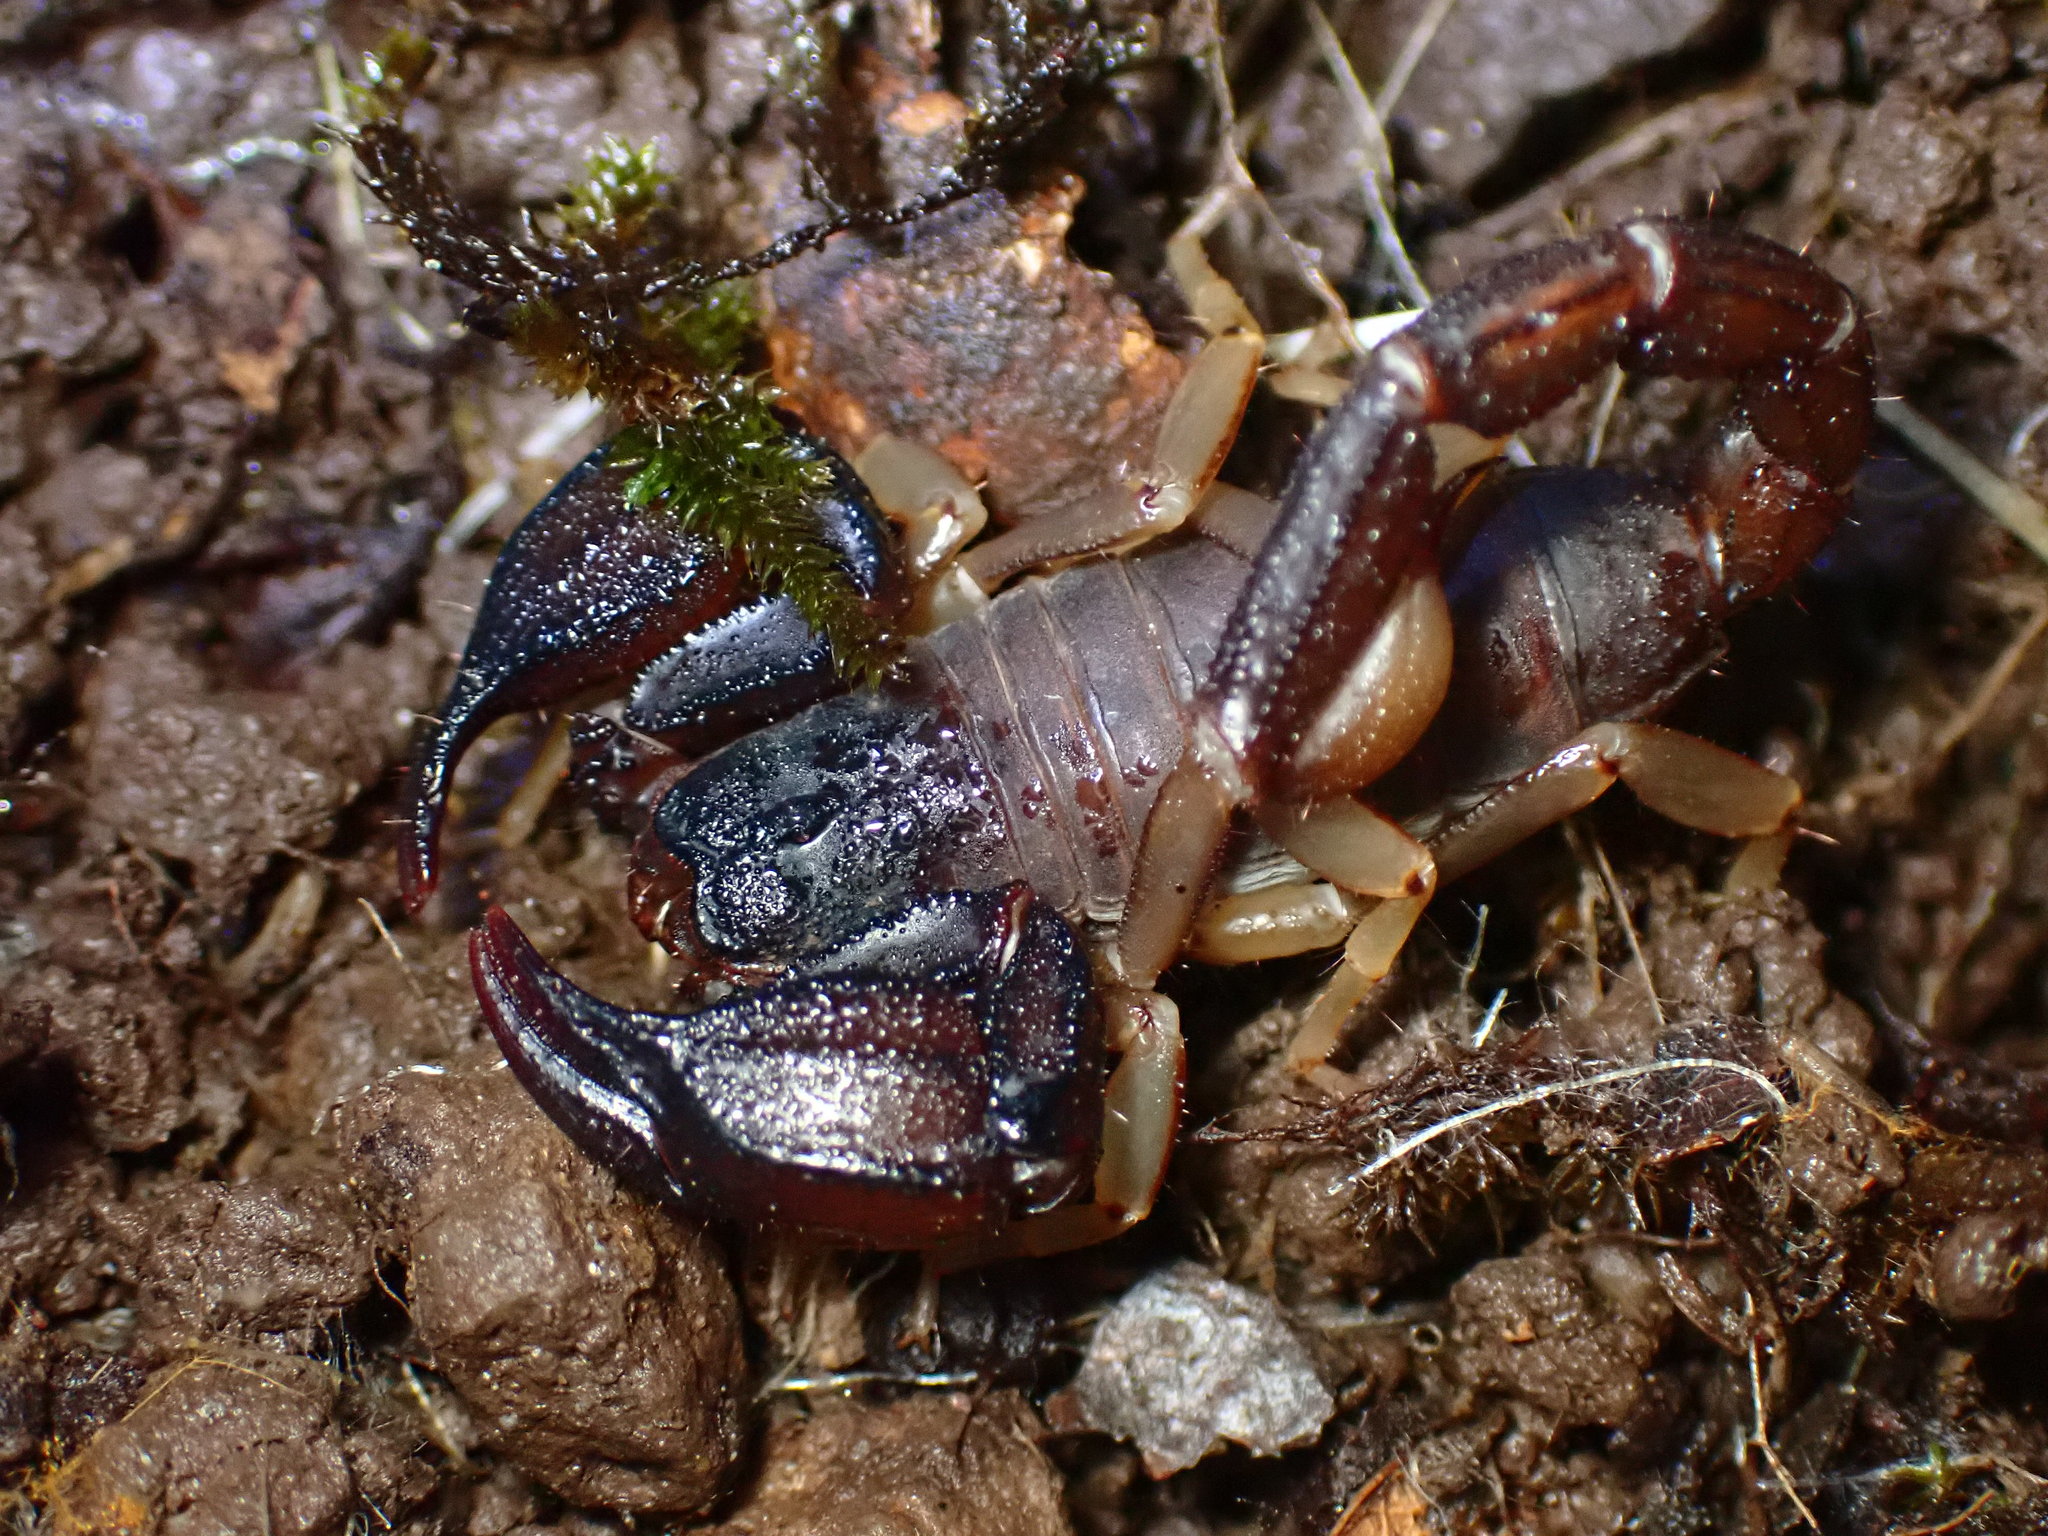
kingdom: Animalia
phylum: Arthropoda
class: Arachnida
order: Scorpiones
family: Chactidae
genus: Uroctonus
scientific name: Uroctonus mordax
